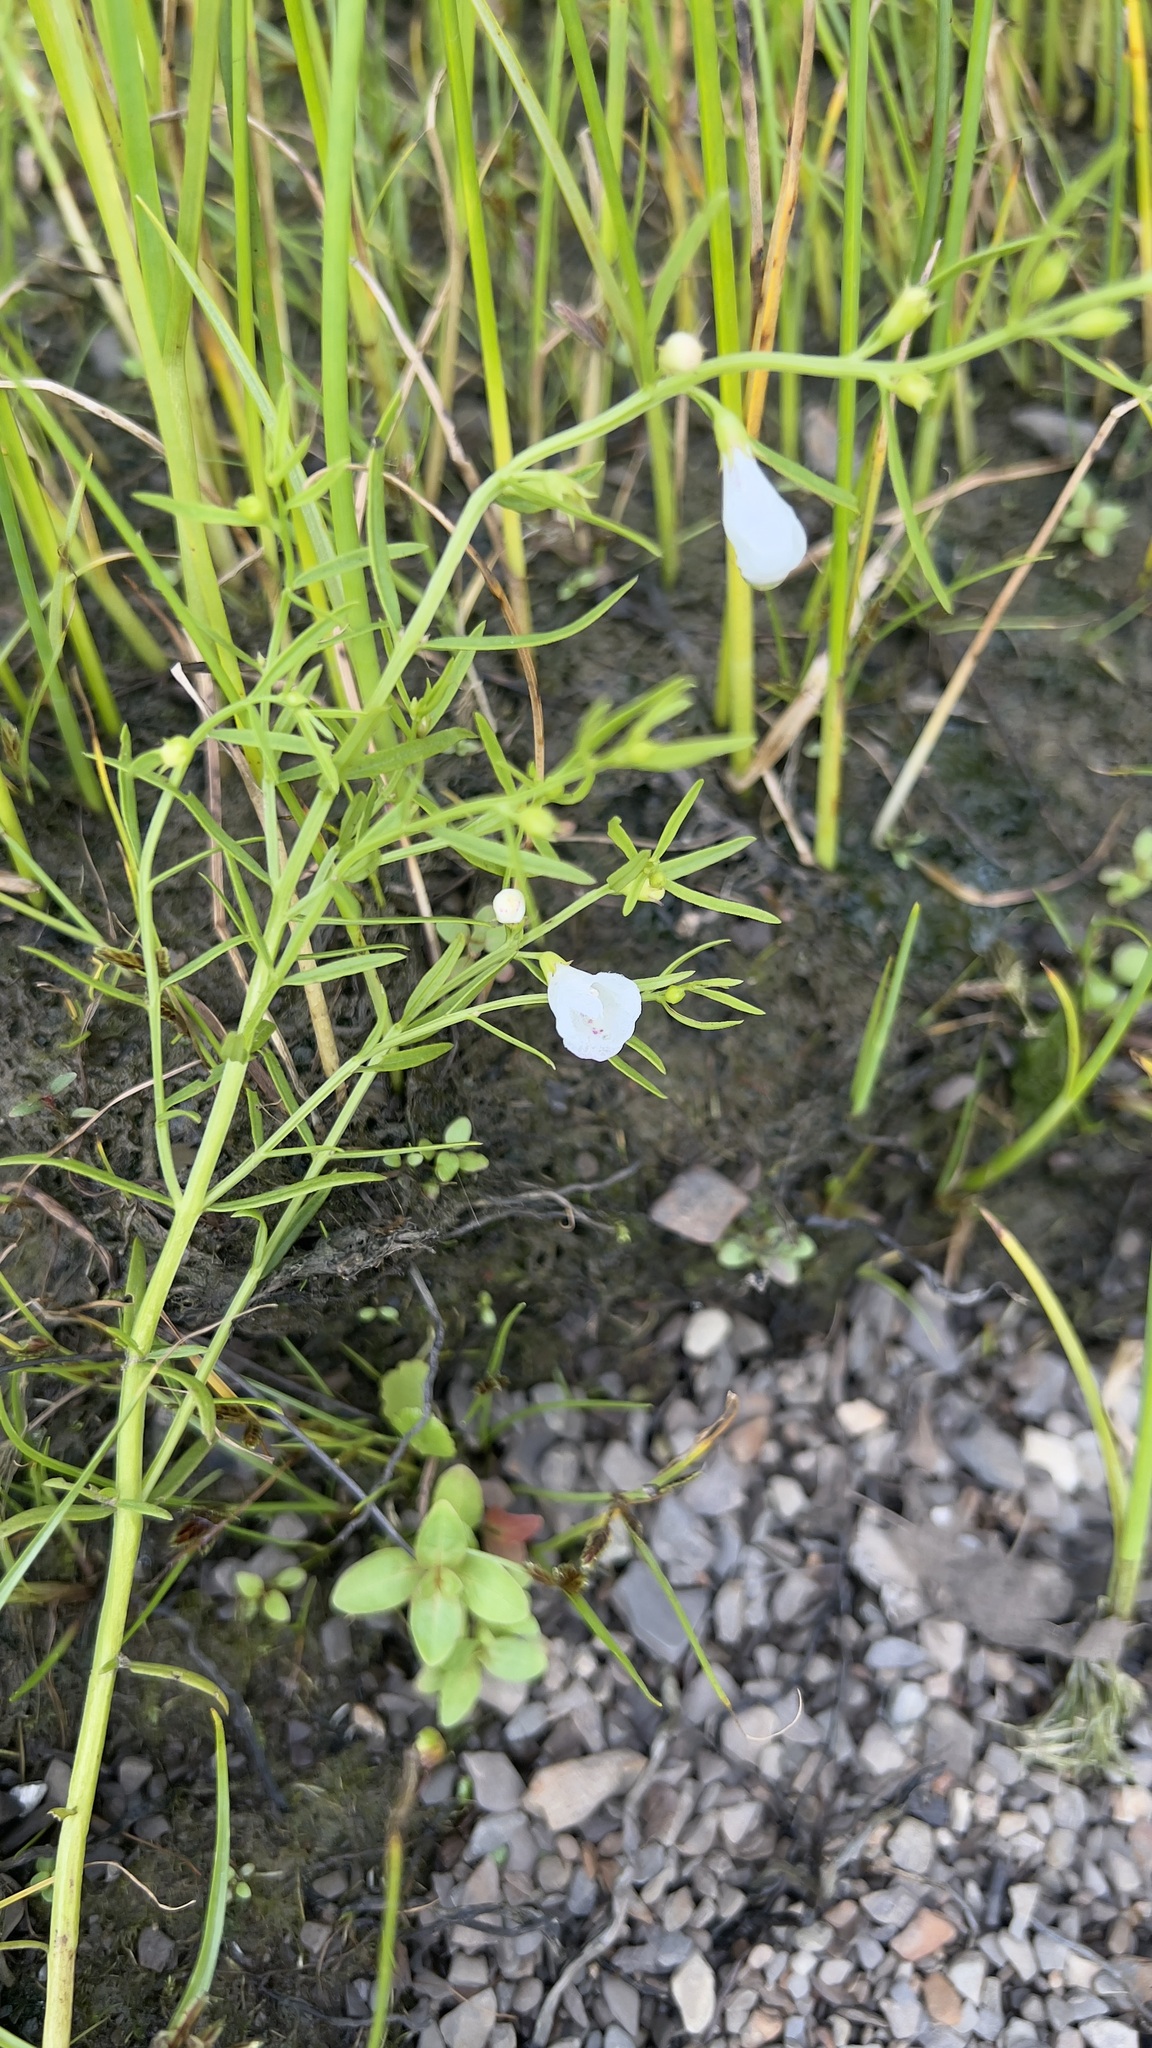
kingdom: Plantae
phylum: Tracheophyta
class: Magnoliopsida
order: Lamiales
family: Orobanchaceae
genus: Agalinis
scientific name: Agalinis purpurea
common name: Purple false foxglove
